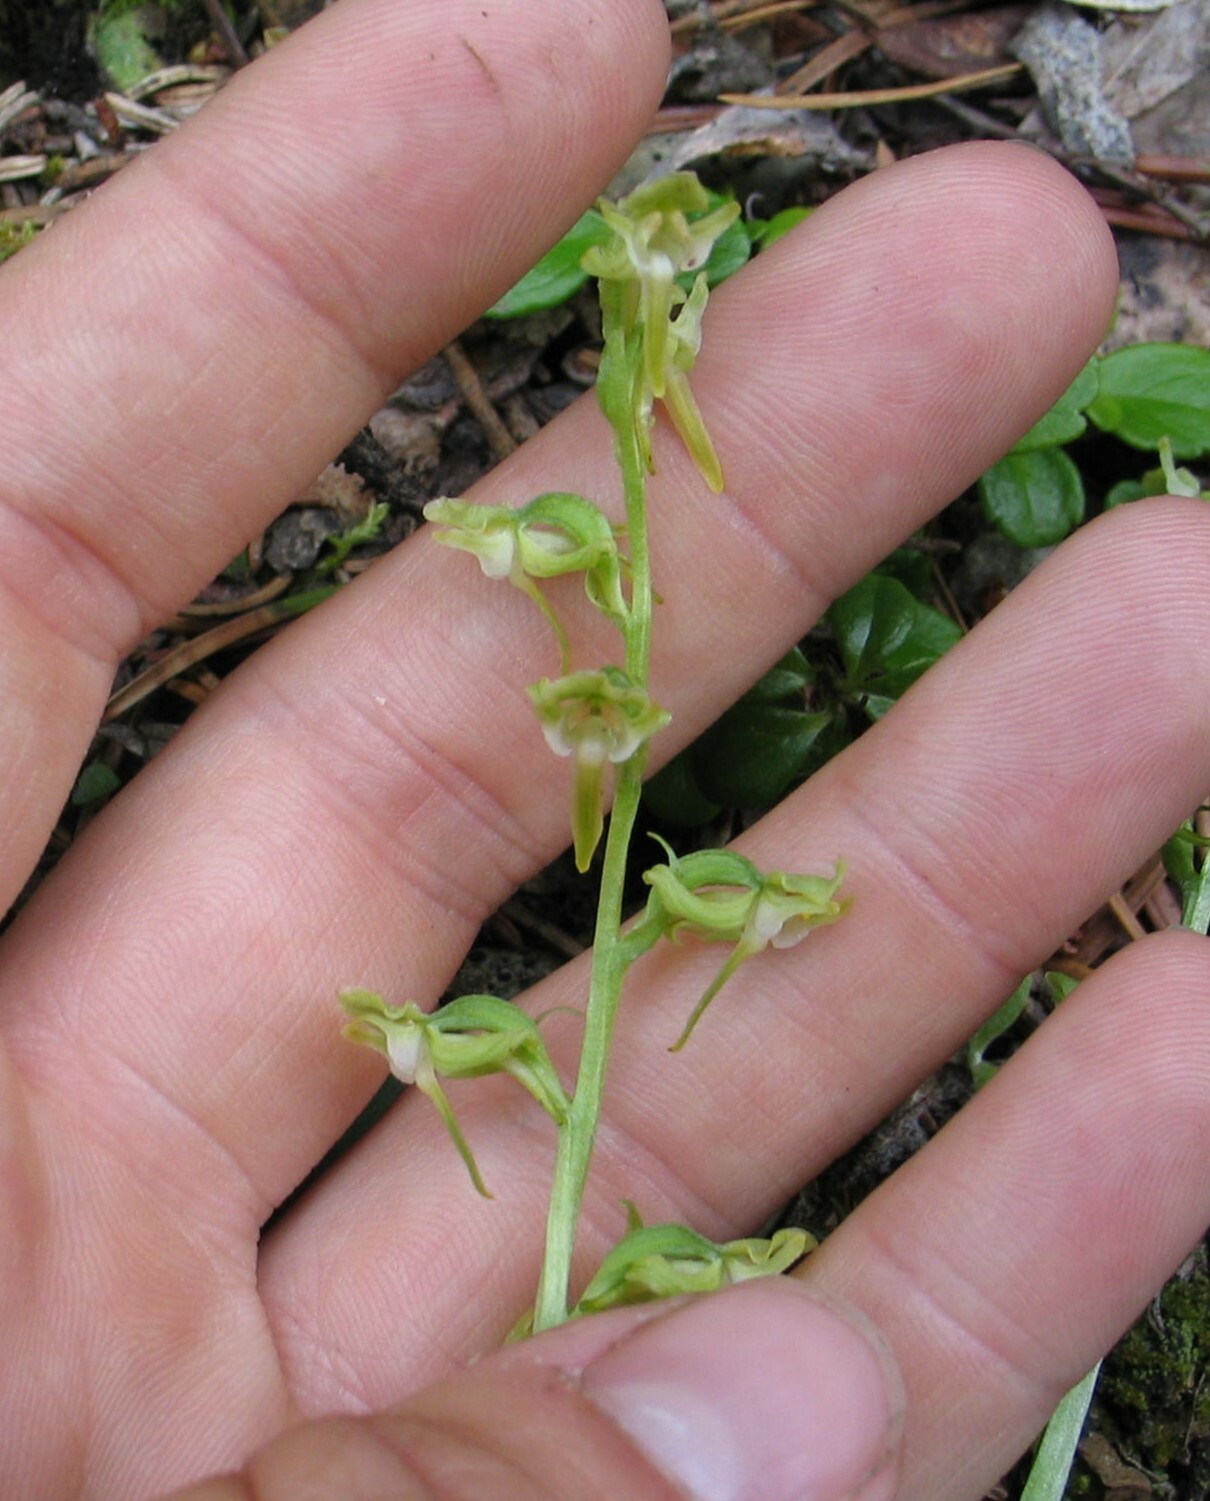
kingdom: Plantae
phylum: Tracheophyta
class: Liliopsida
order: Asparagales
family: Orchidaceae
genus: Platanthera
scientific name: Platanthera obtusata
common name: Blunt bog orchid
